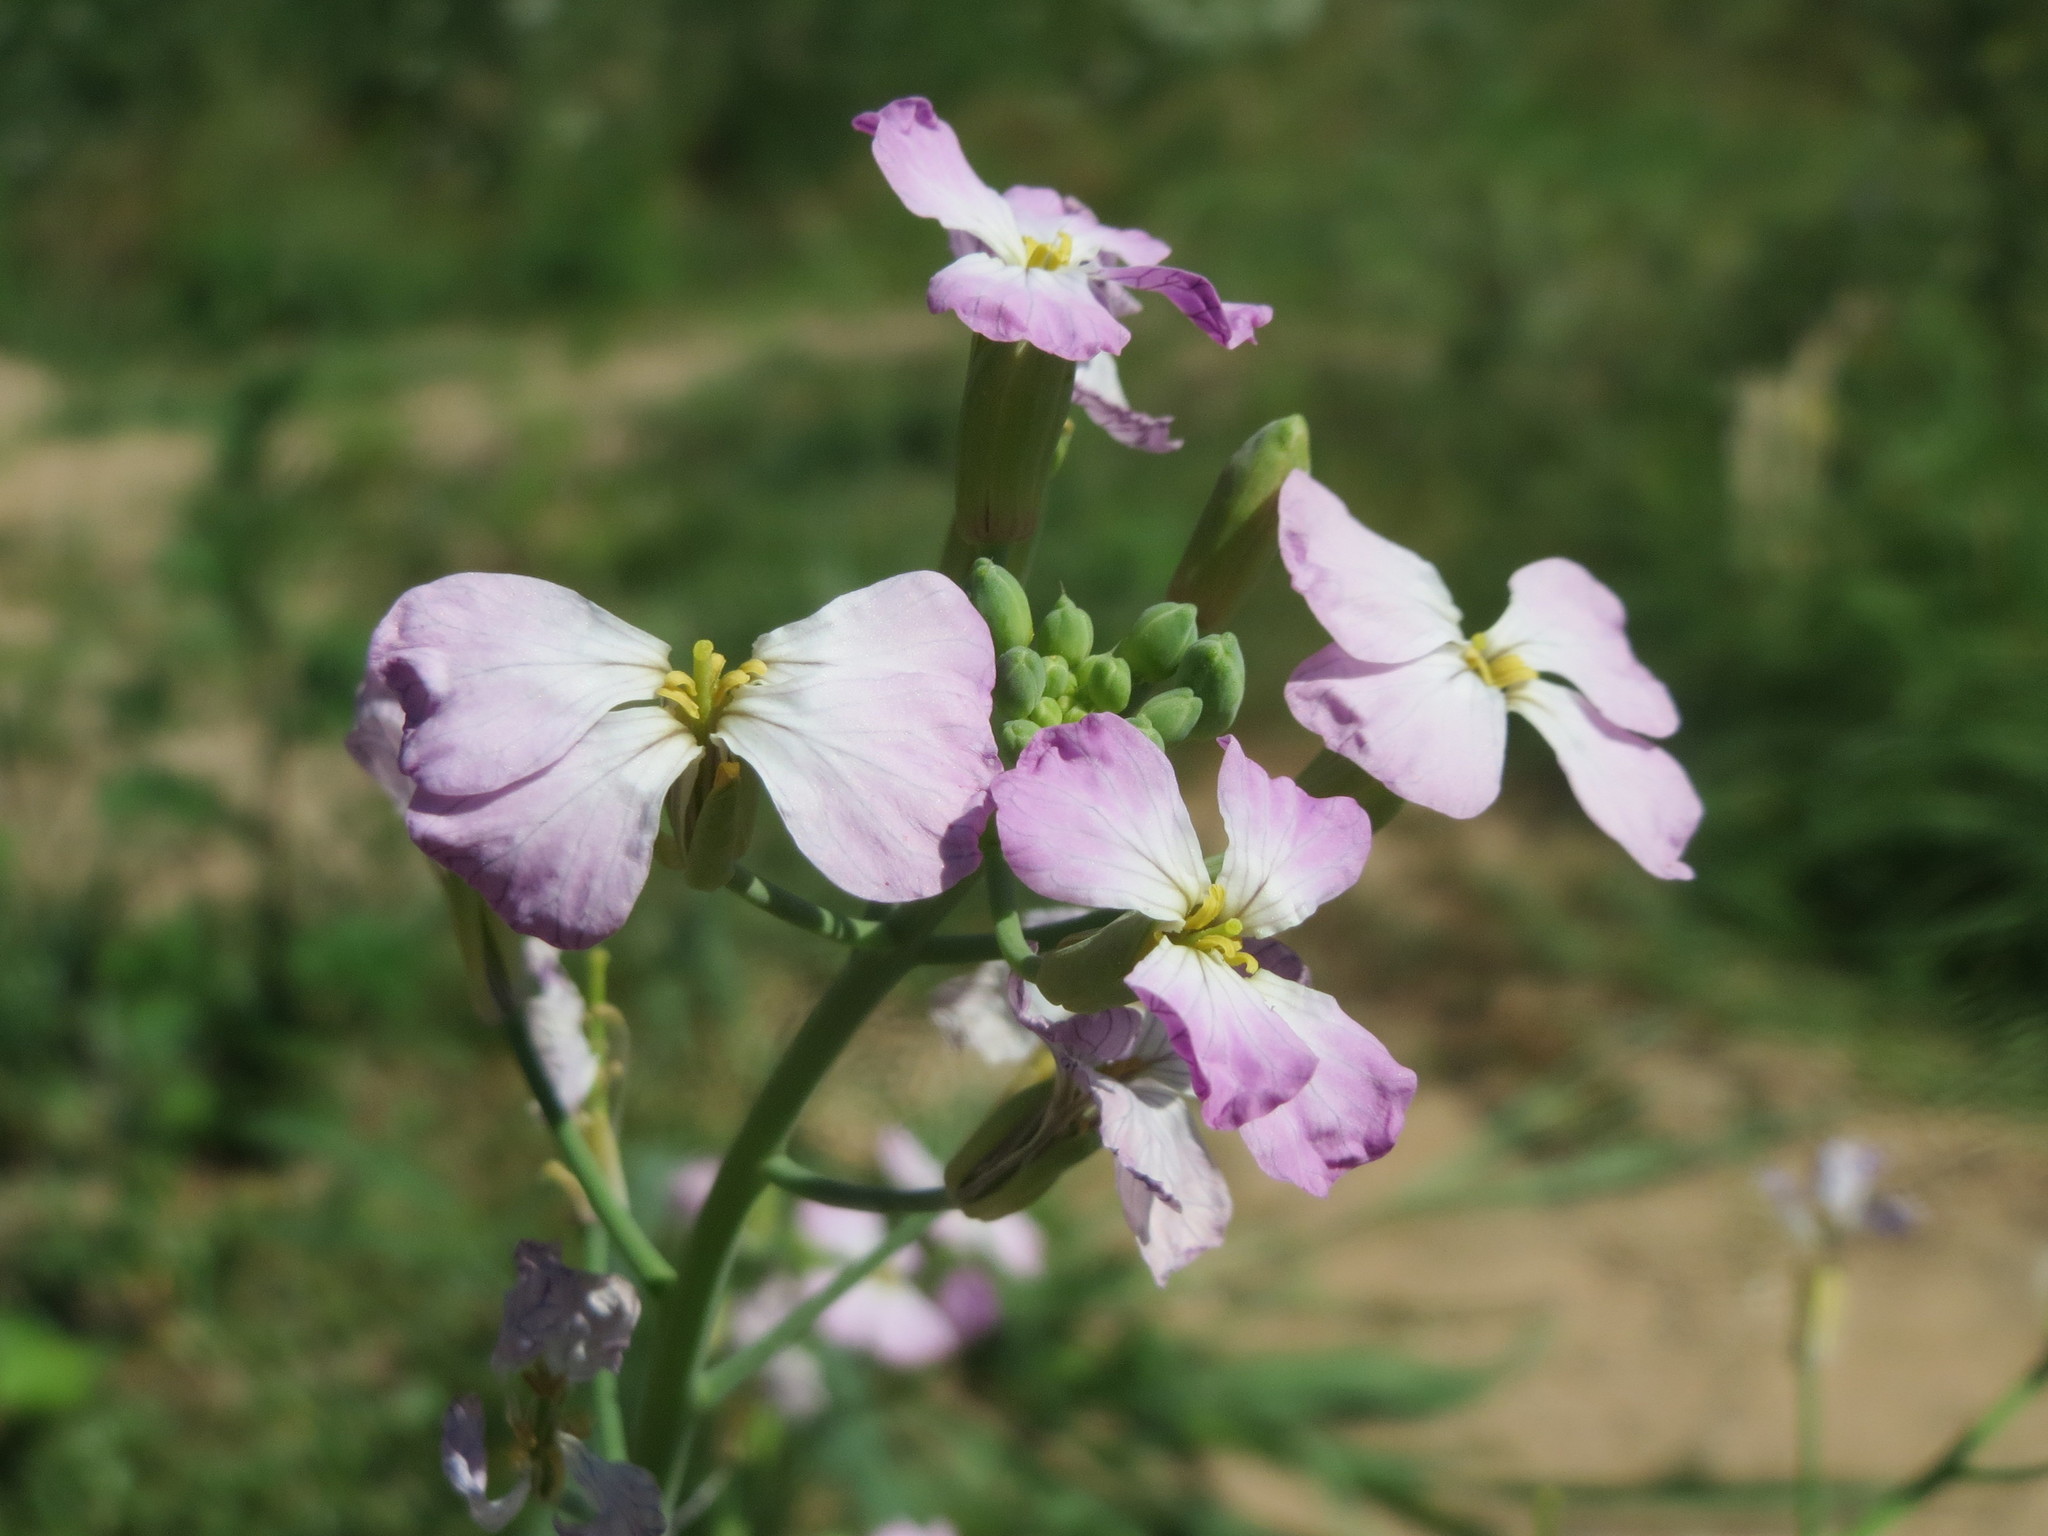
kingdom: Plantae
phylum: Tracheophyta
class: Magnoliopsida
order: Brassicales
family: Brassicaceae
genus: Raphanus
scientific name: Raphanus sativus
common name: Cultivated radish
